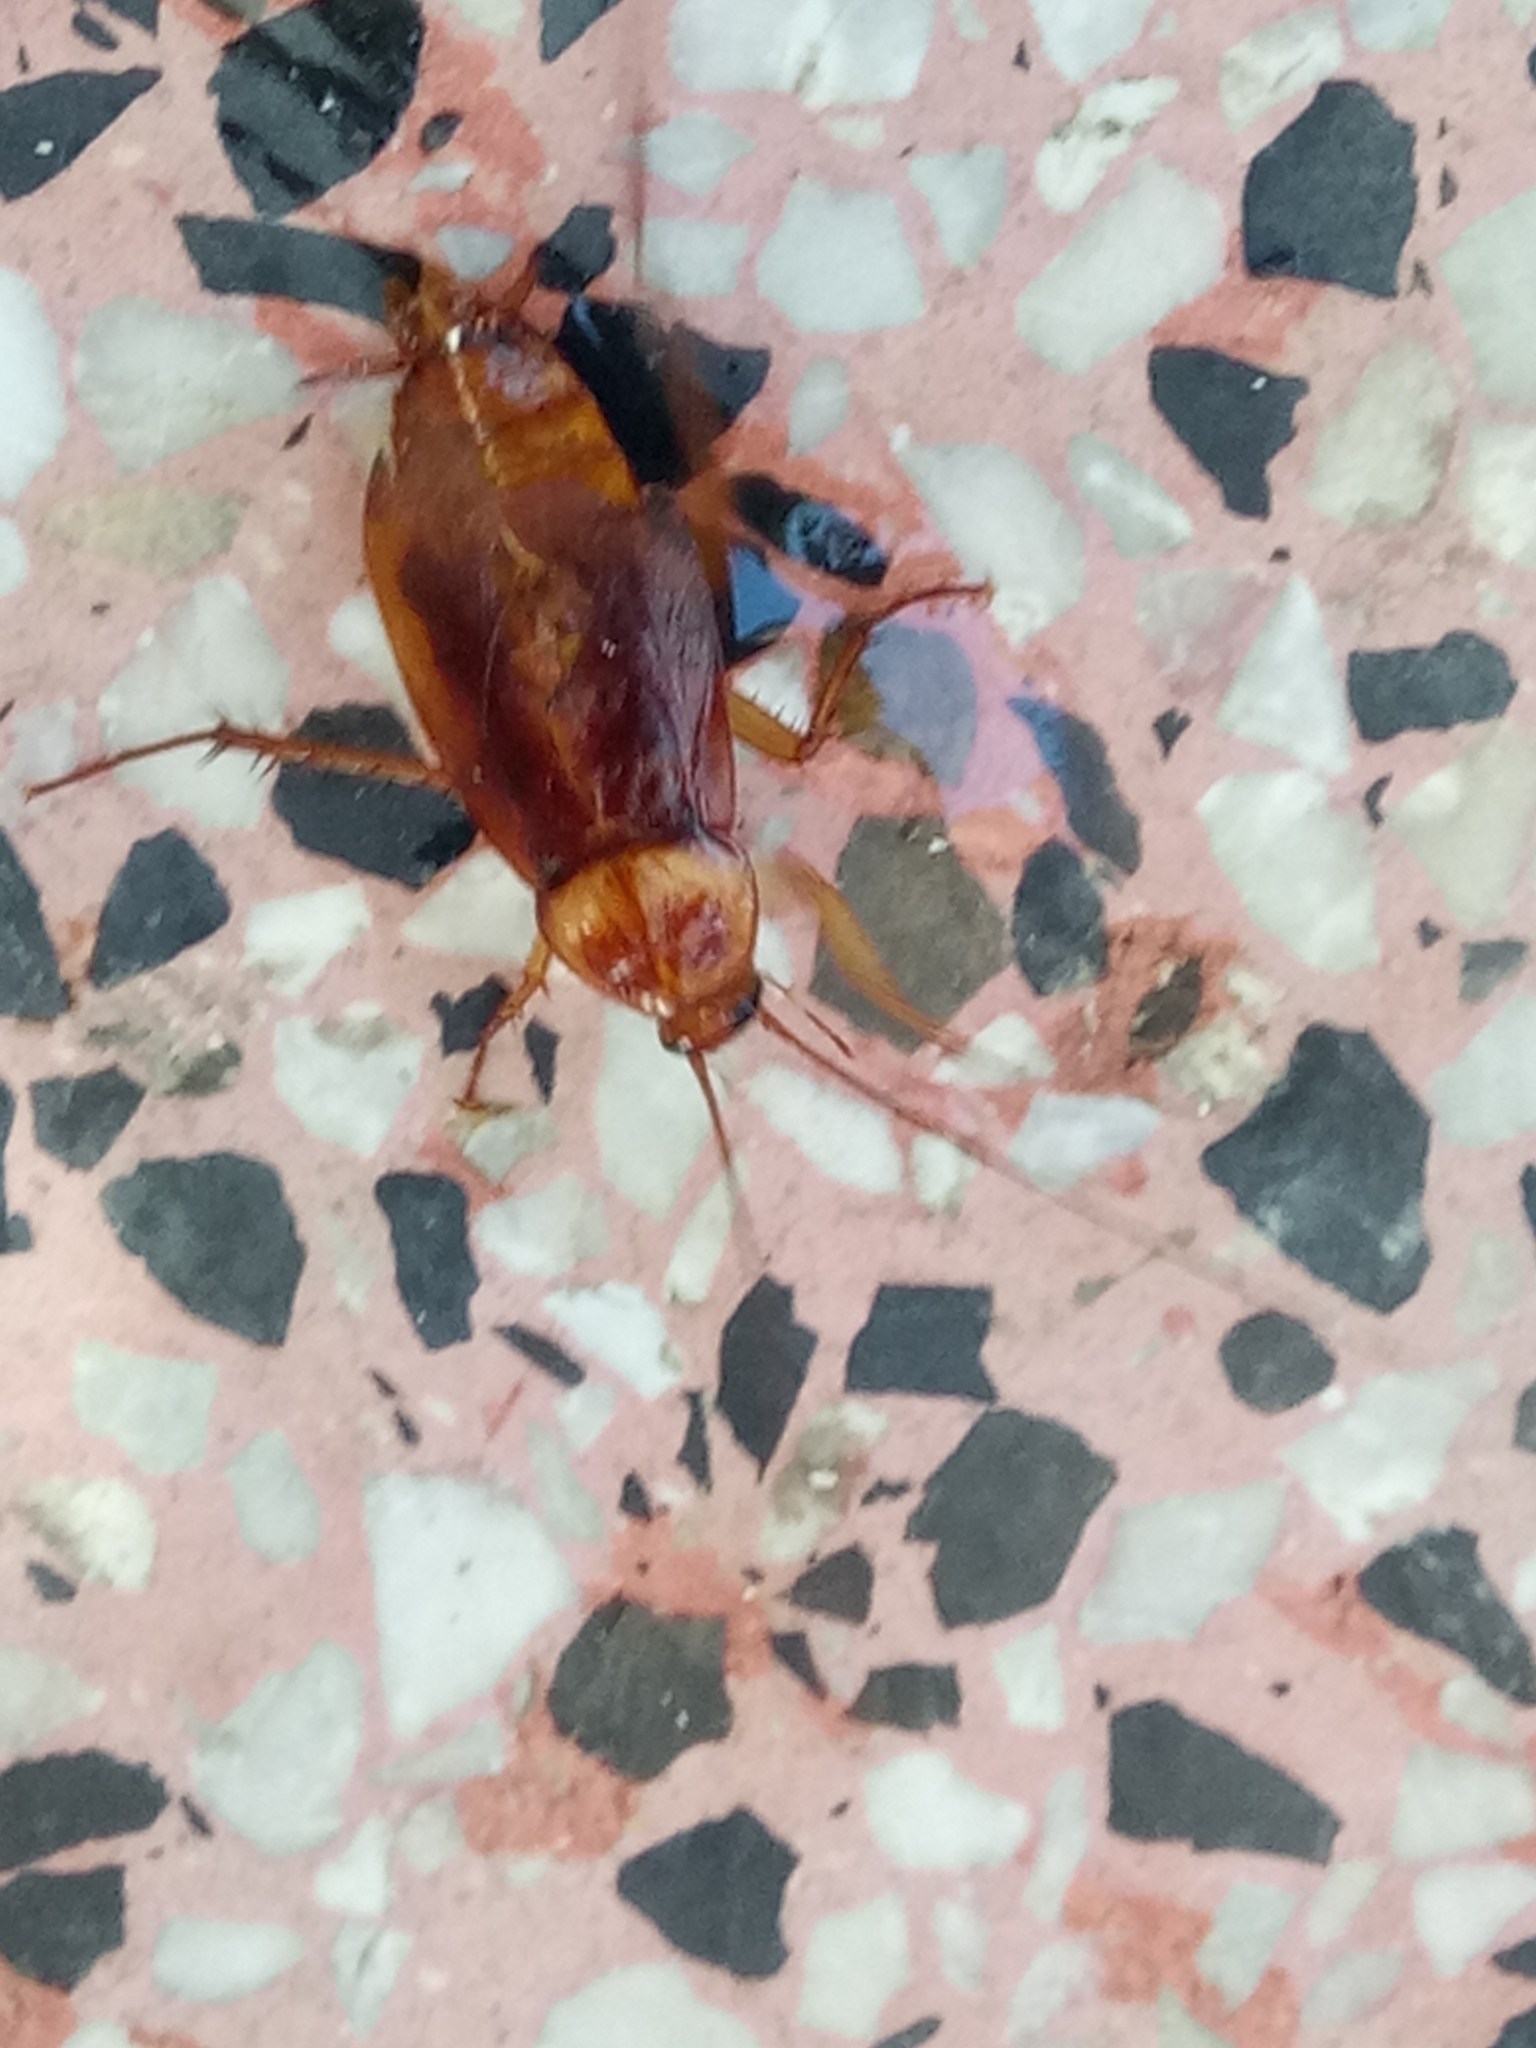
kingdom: Animalia
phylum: Arthropoda
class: Insecta
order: Blattodea
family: Blattidae
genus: Periplaneta
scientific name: Periplaneta americana
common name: American cockroach
